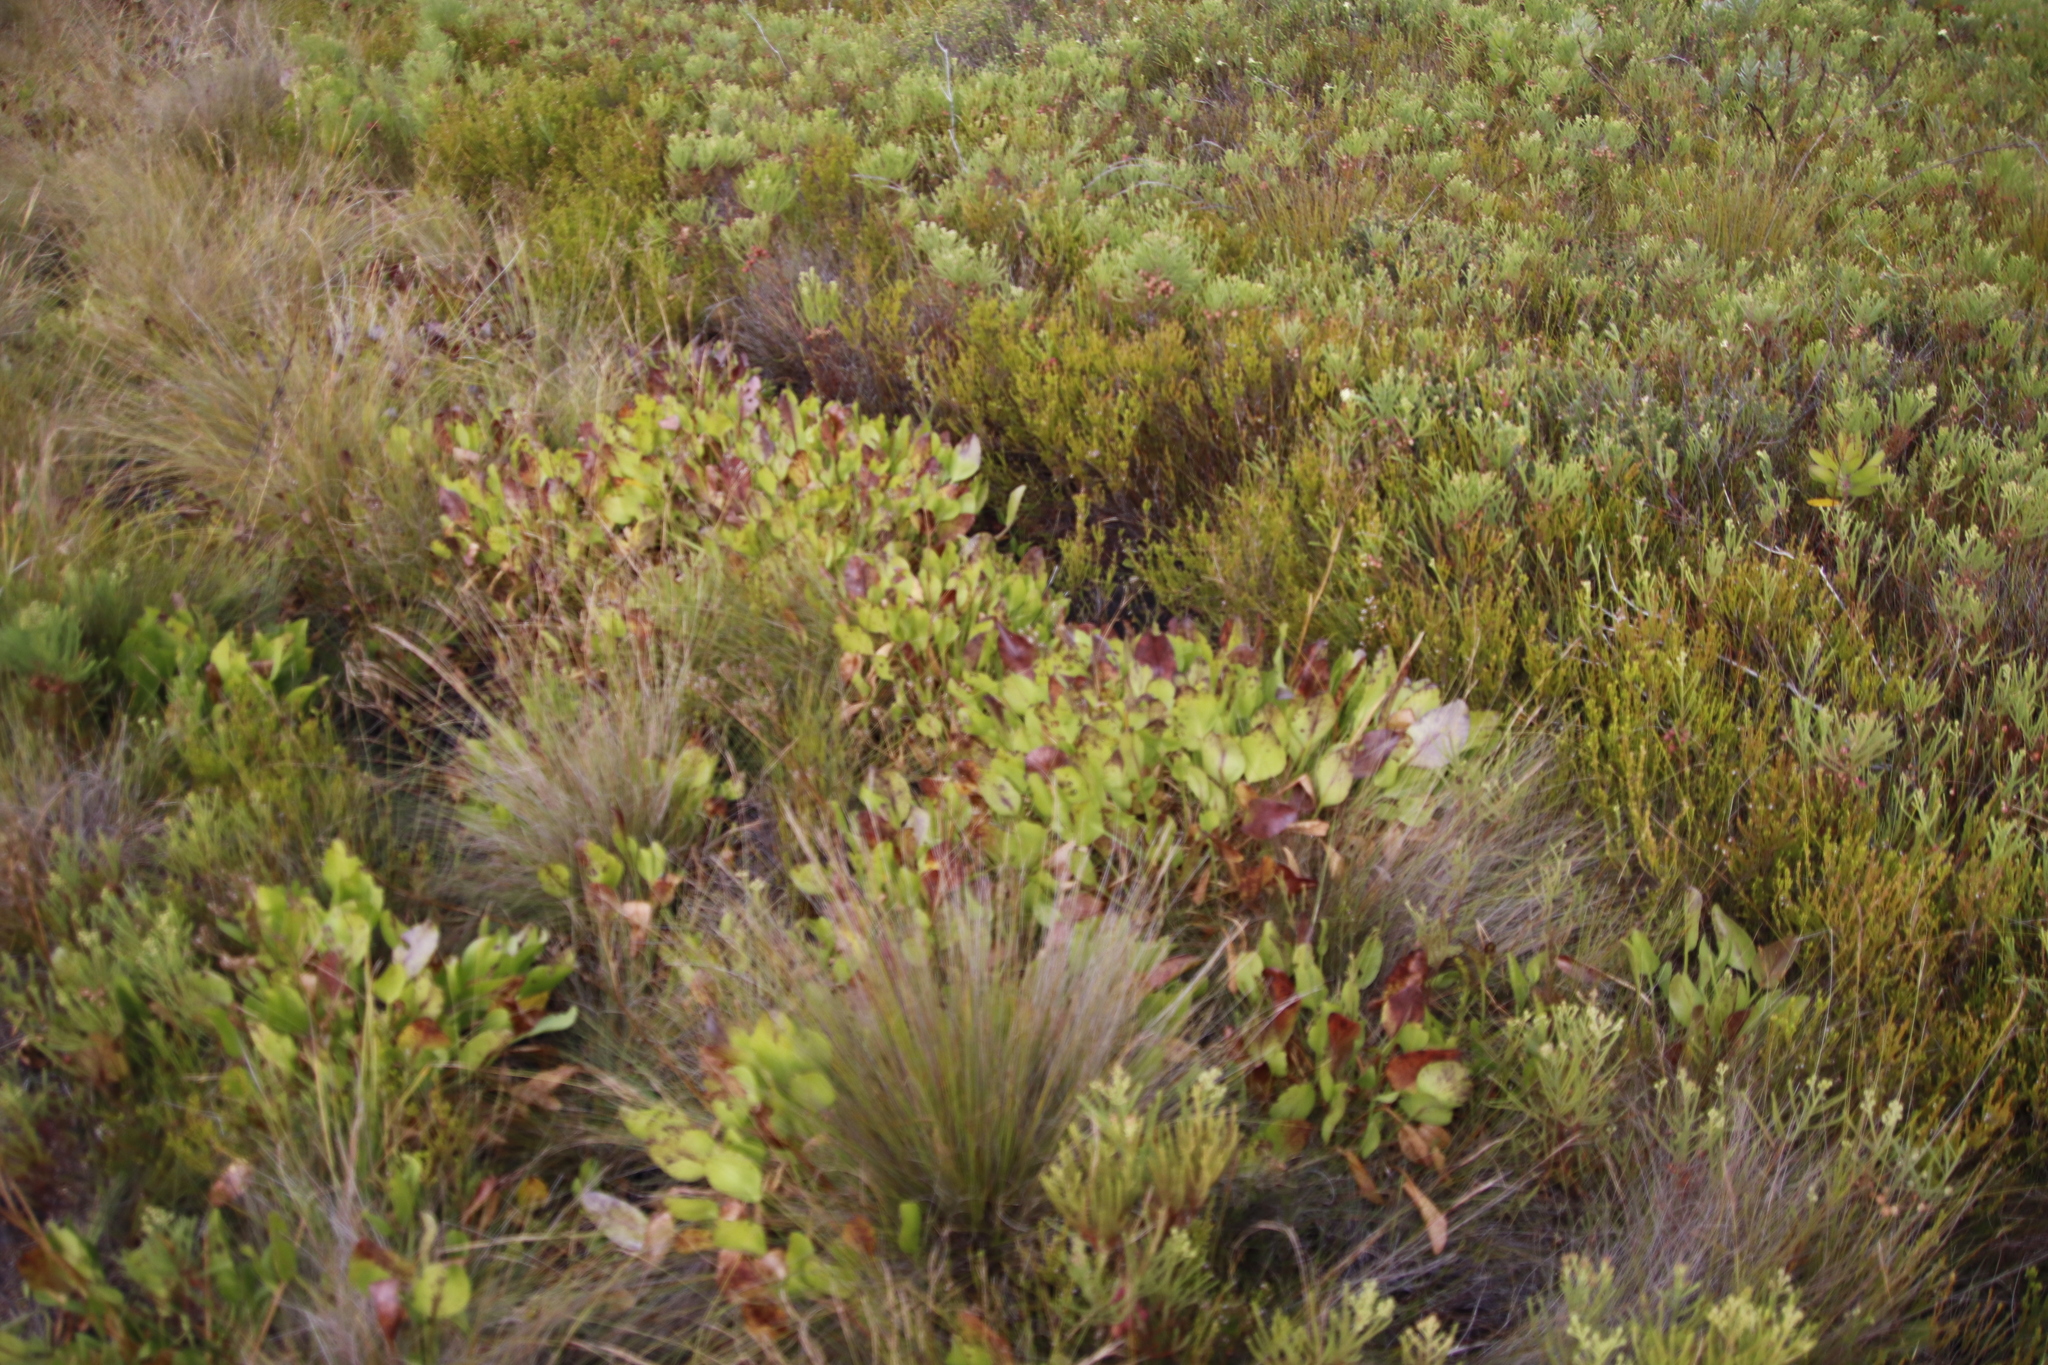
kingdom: Plantae
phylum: Tracheophyta
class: Magnoliopsida
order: Asterales
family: Menyanthaceae
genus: Villarsia
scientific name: Villarsia goldblattiana
